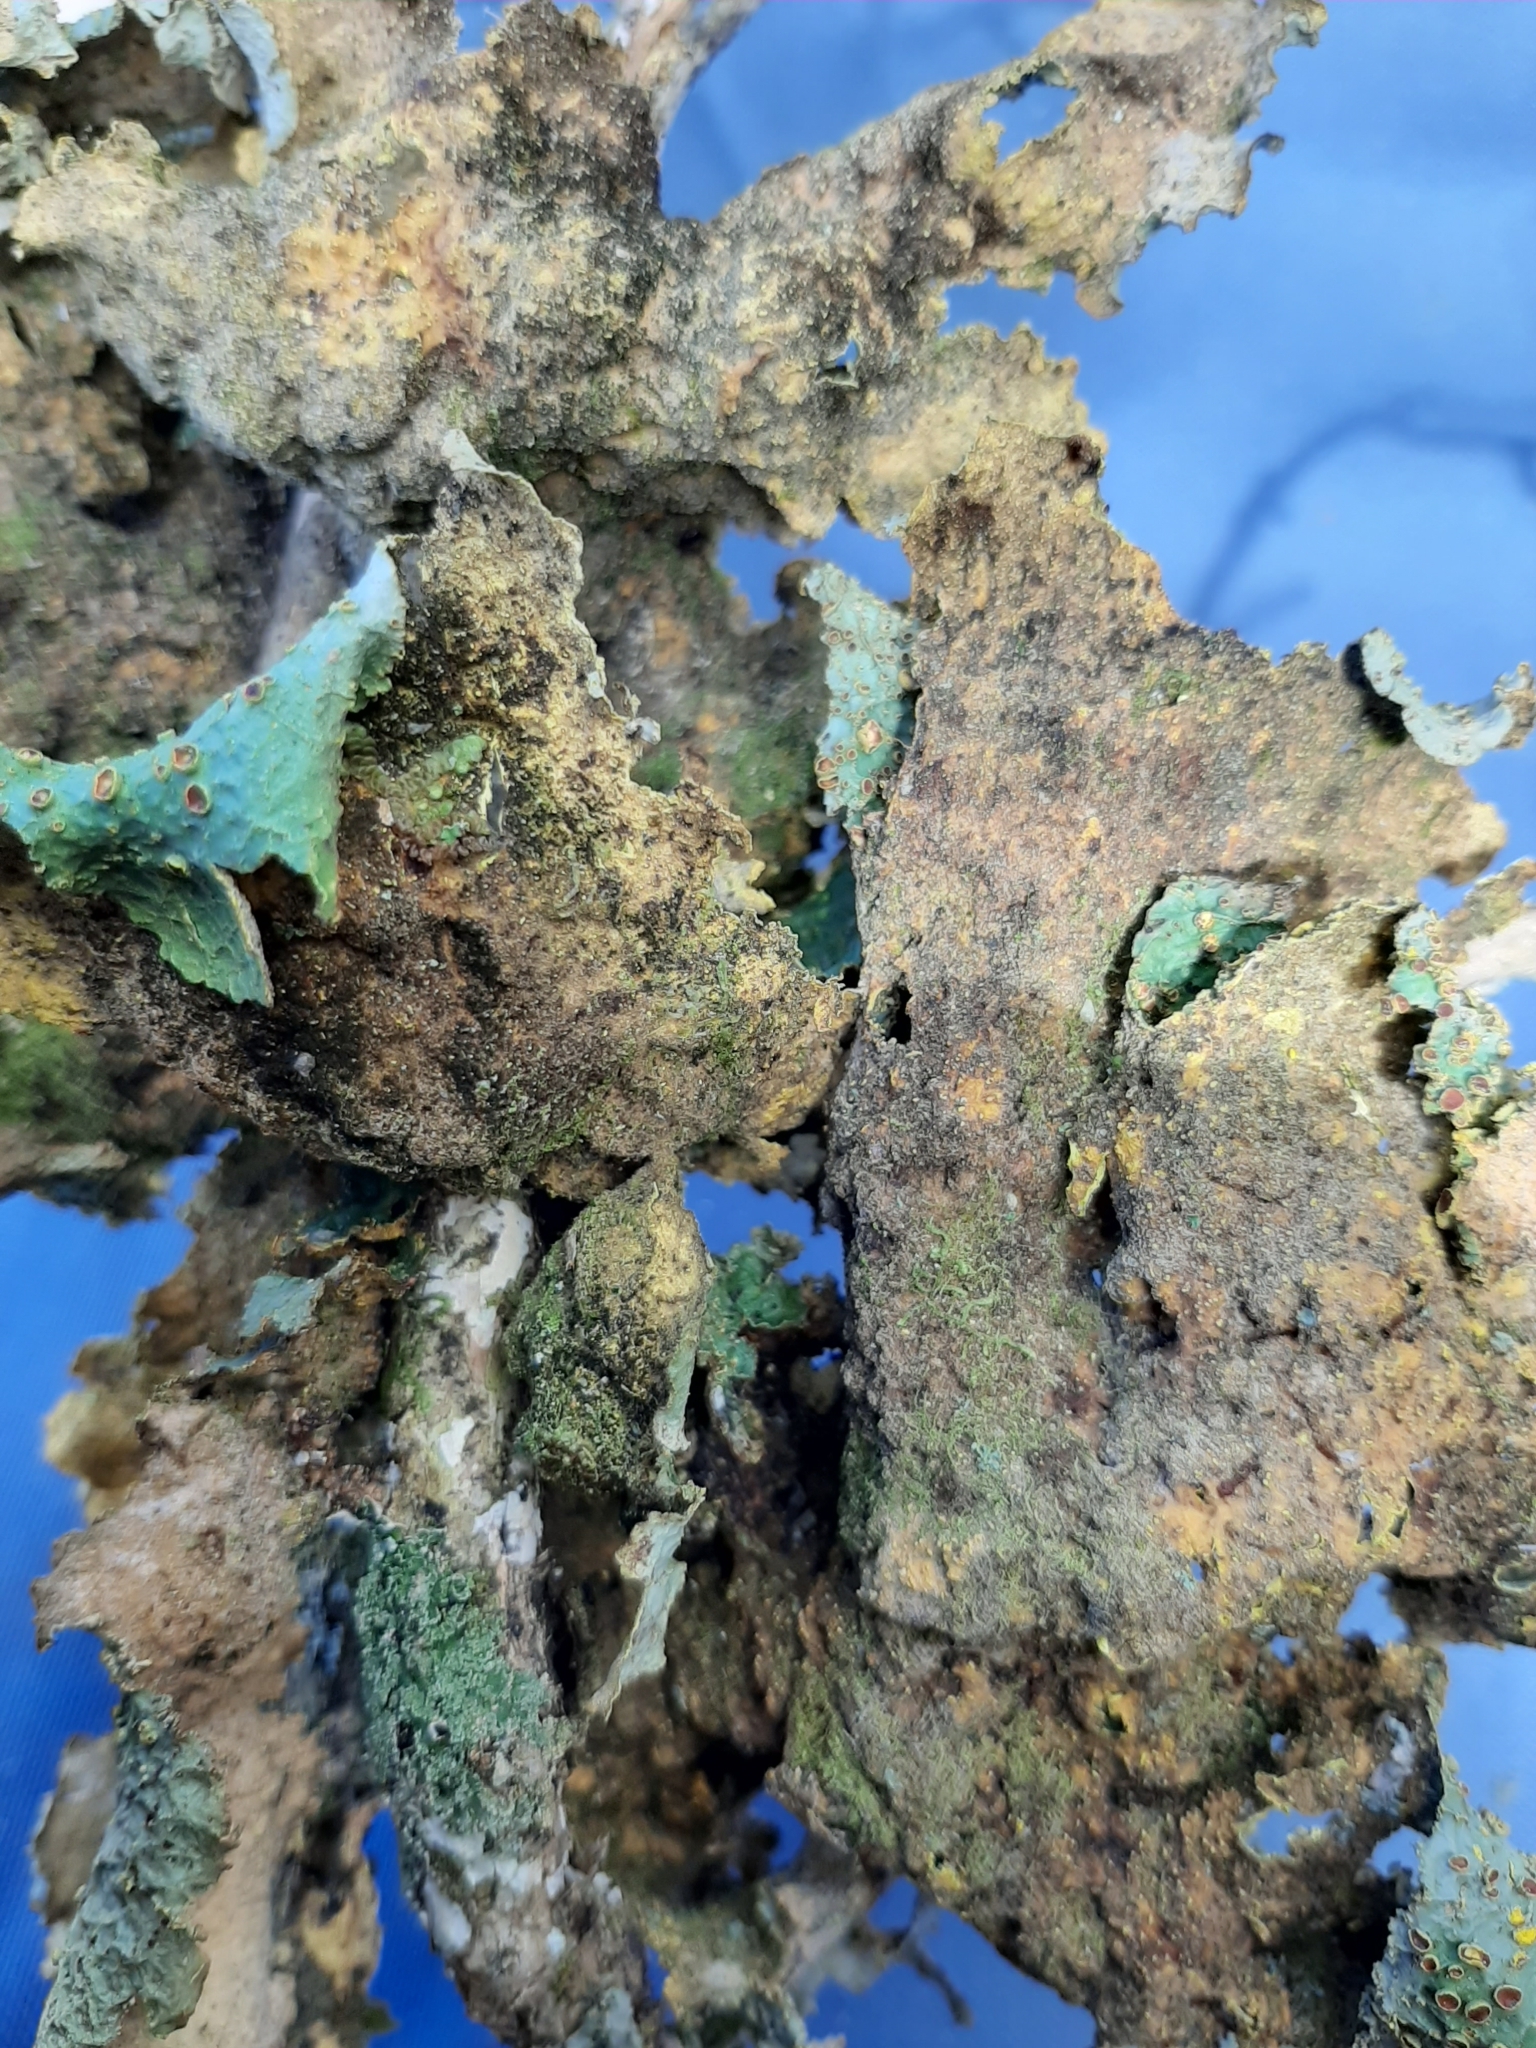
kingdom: Fungi
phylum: Ascomycota
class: Lecanoromycetes
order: Peltigerales
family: Lobariaceae
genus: Yarrumia
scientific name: Yarrumia colensoi
